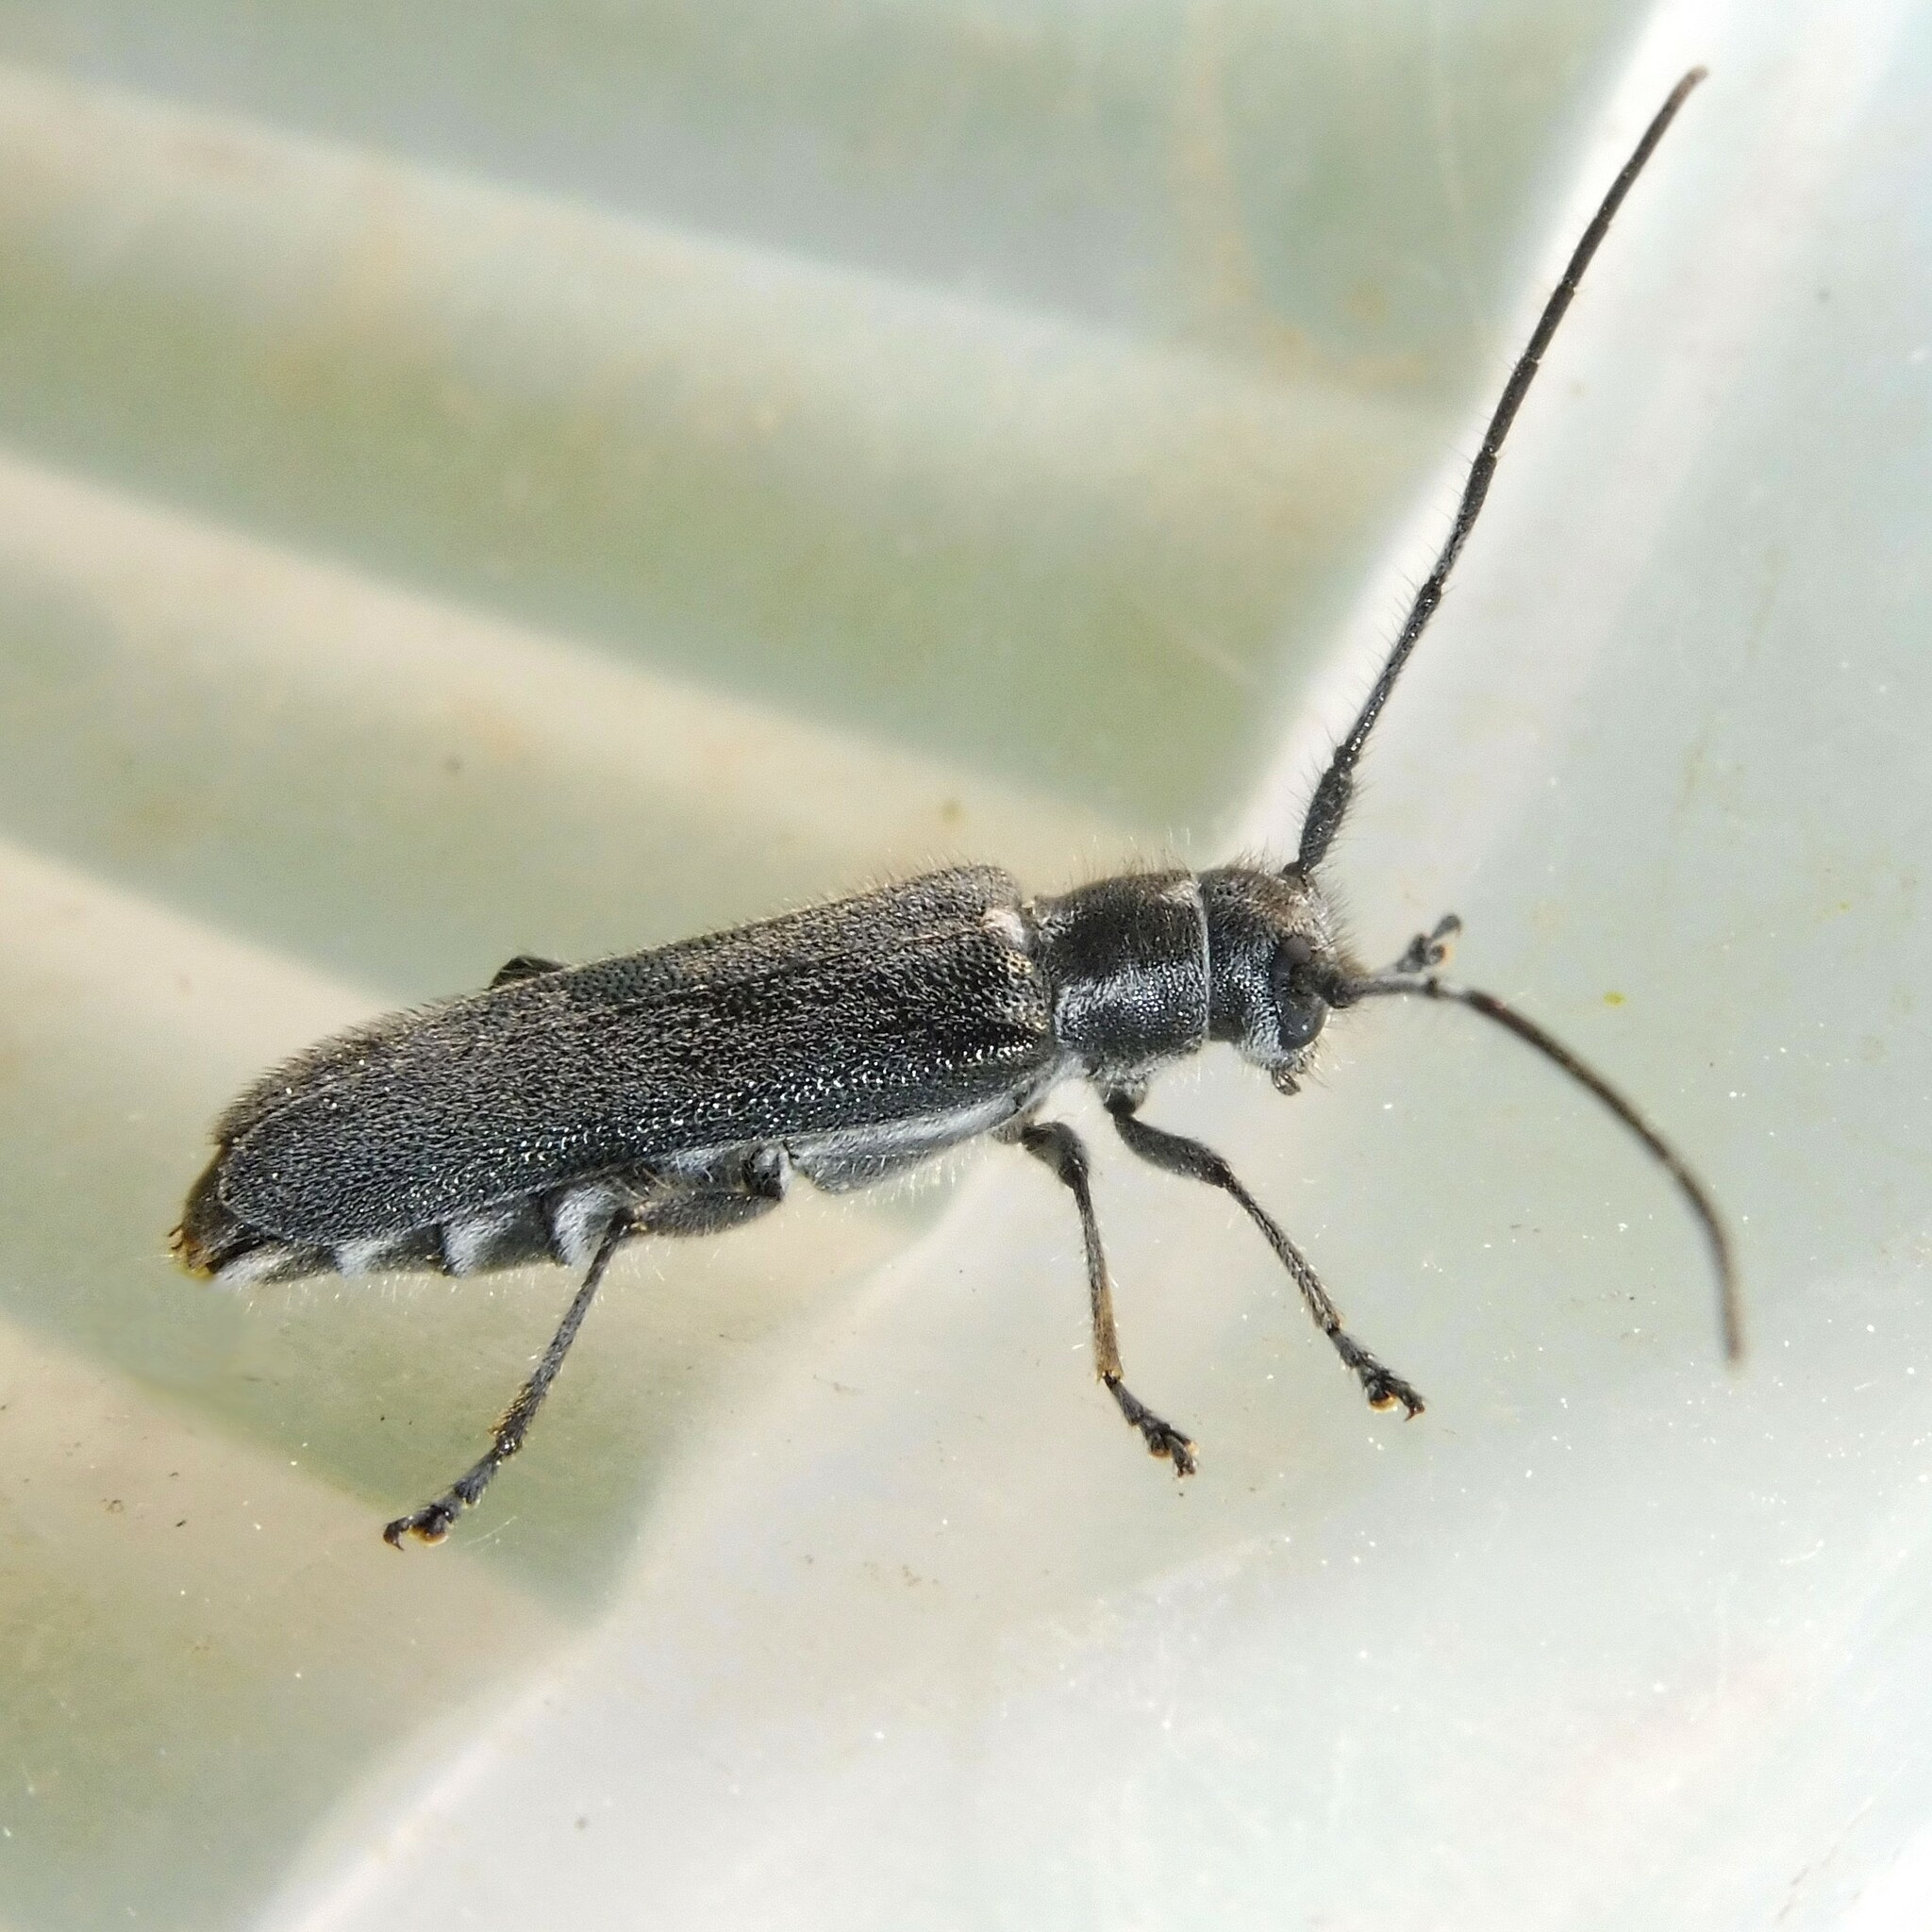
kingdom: Animalia
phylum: Arthropoda
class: Insecta
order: Coleoptera
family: Cerambycidae
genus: Stenostola
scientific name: Stenostola dubia
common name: Lime beetle
